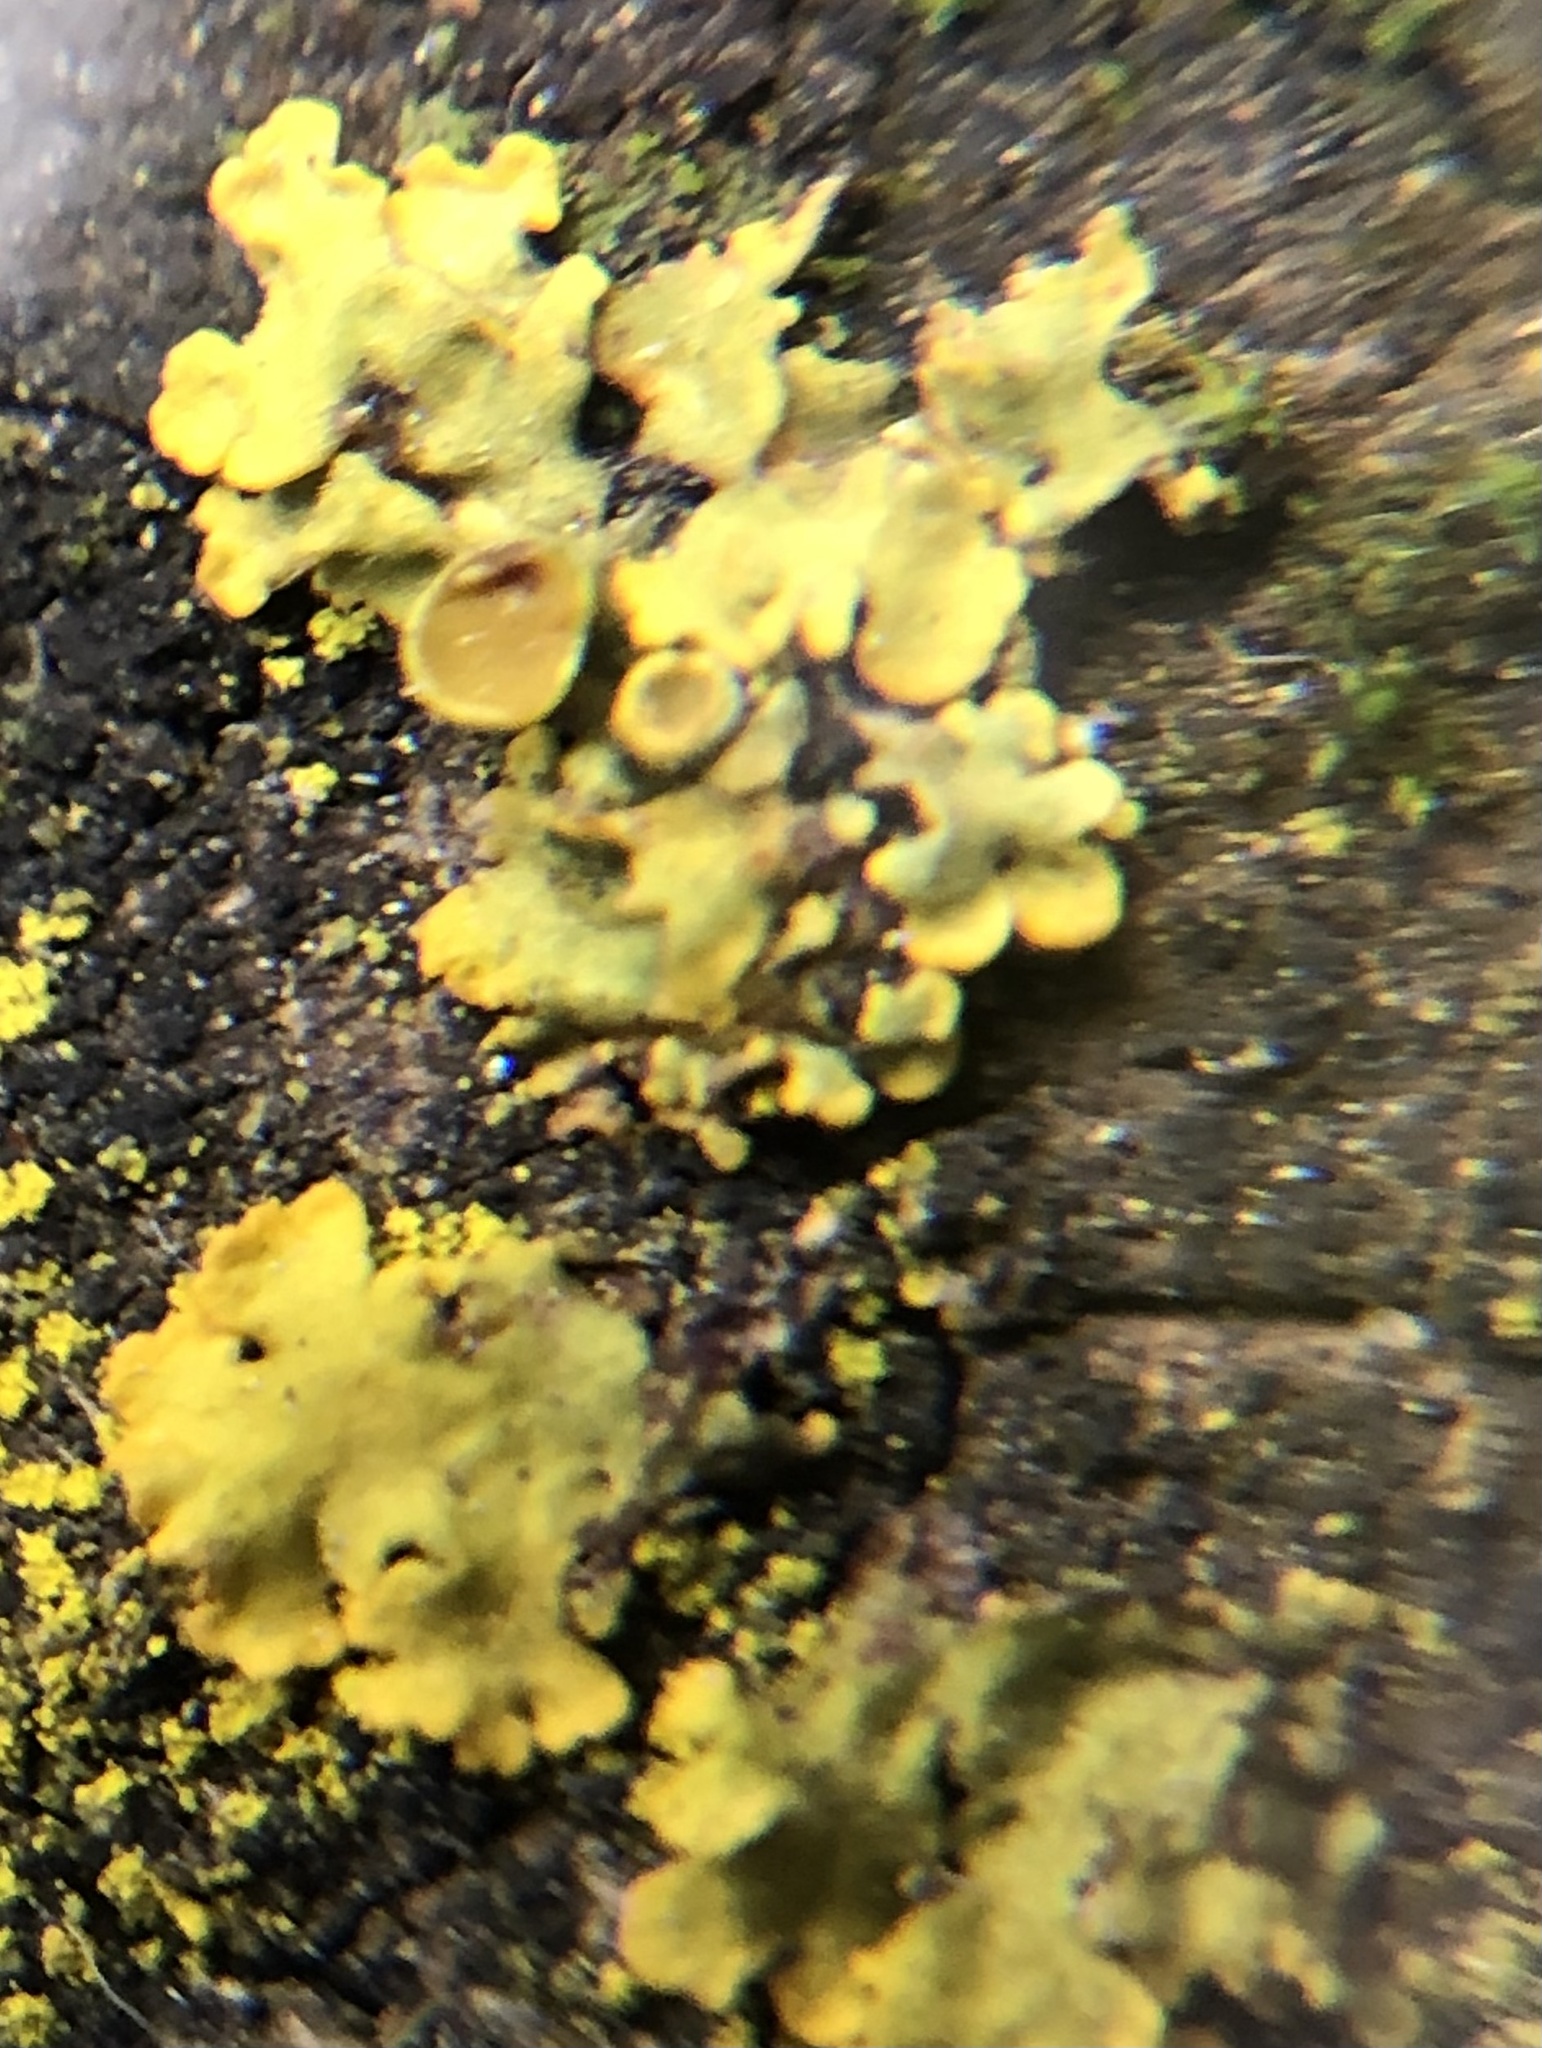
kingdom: Fungi
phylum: Ascomycota
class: Lecanoromycetes
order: Teloschistales
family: Teloschistaceae
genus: Xanthoria
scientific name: Xanthoria parietina
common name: Common orange lichen
